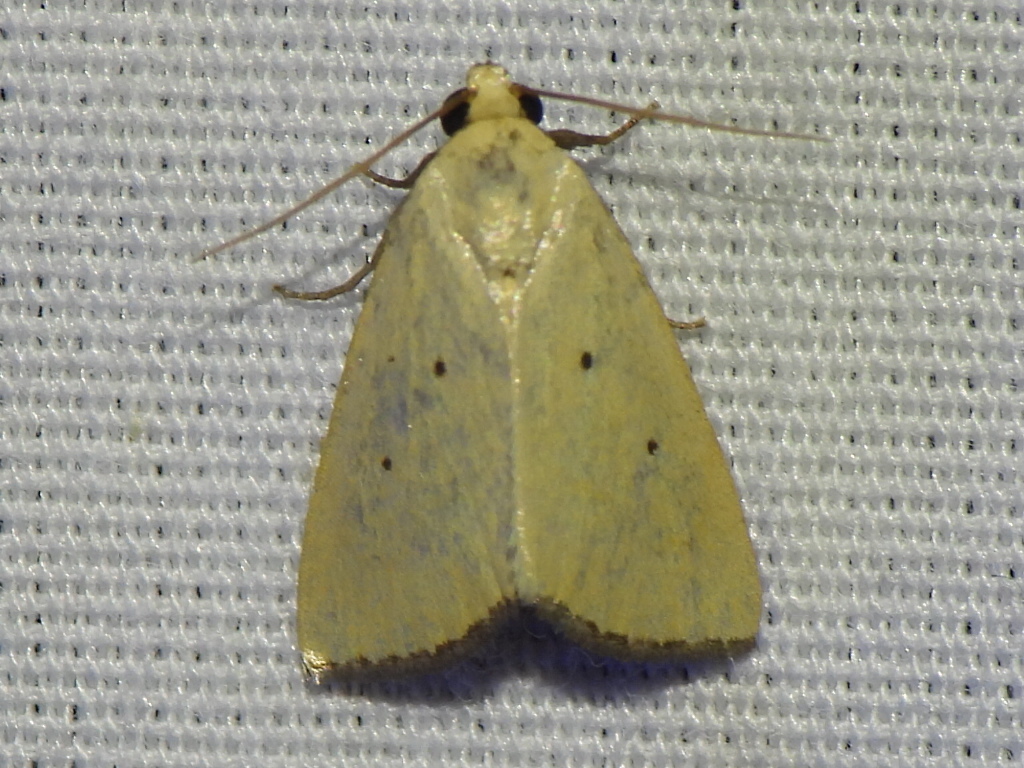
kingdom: Animalia
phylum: Arthropoda
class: Insecta
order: Lepidoptera
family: Noctuidae
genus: Marimatha
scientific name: Marimatha nigrofimbria
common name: Black-bordered lemon moth
